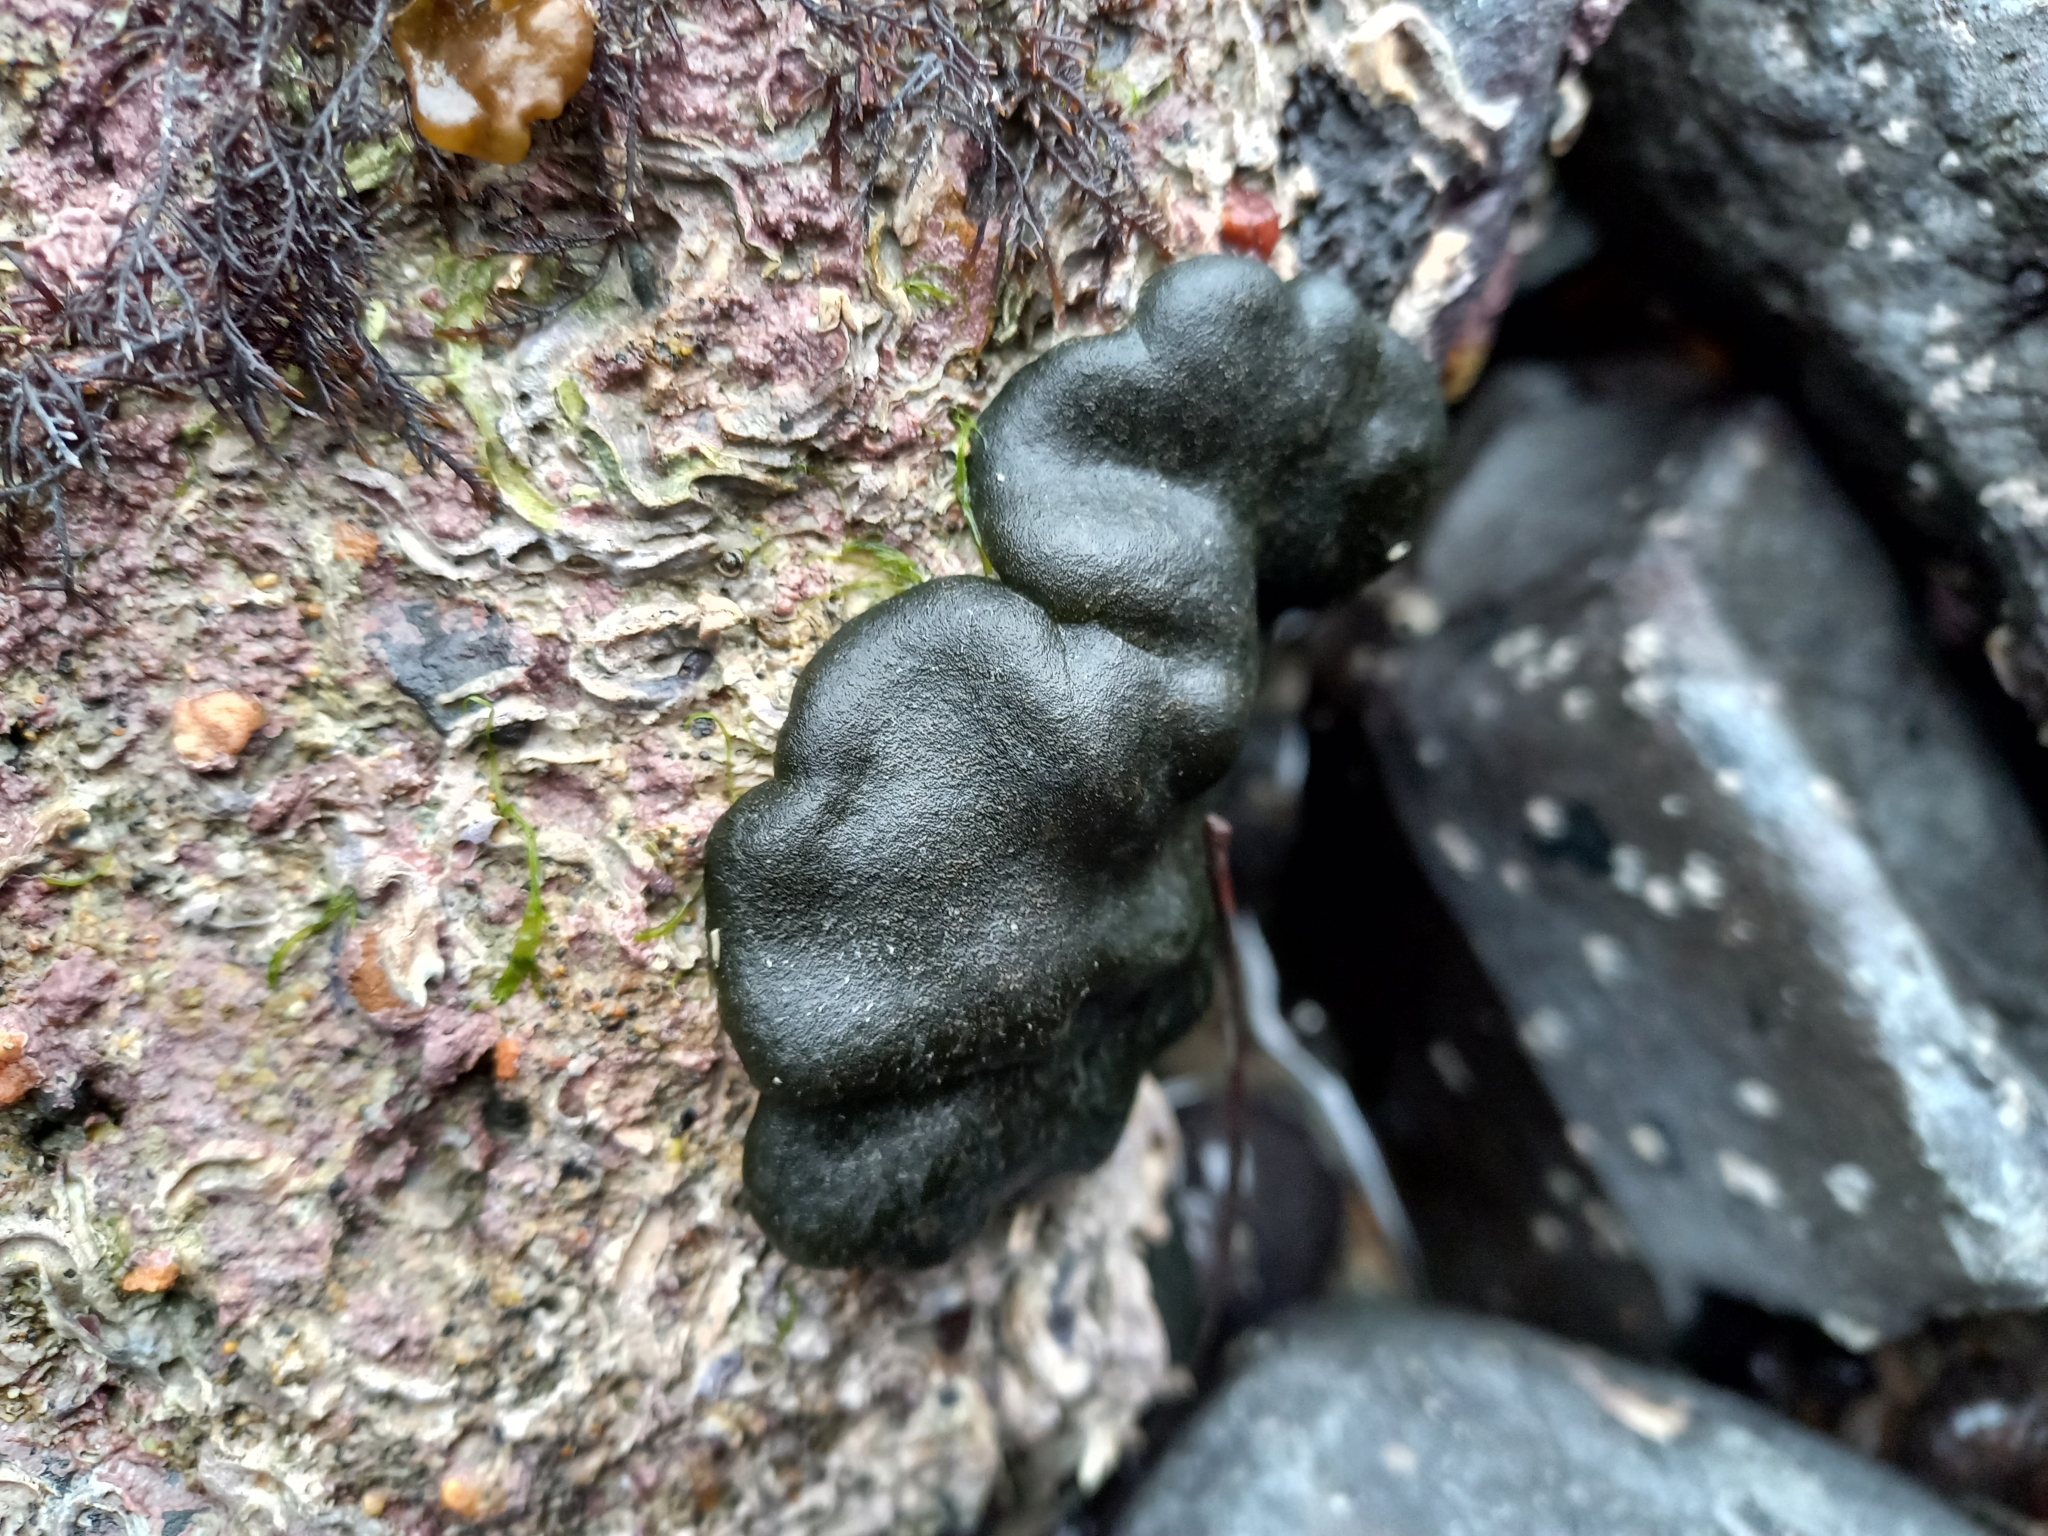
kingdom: Plantae
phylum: Chlorophyta
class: Ulvophyceae
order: Bryopsidales
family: Codiaceae
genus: Codium
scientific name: Codium convolutum
